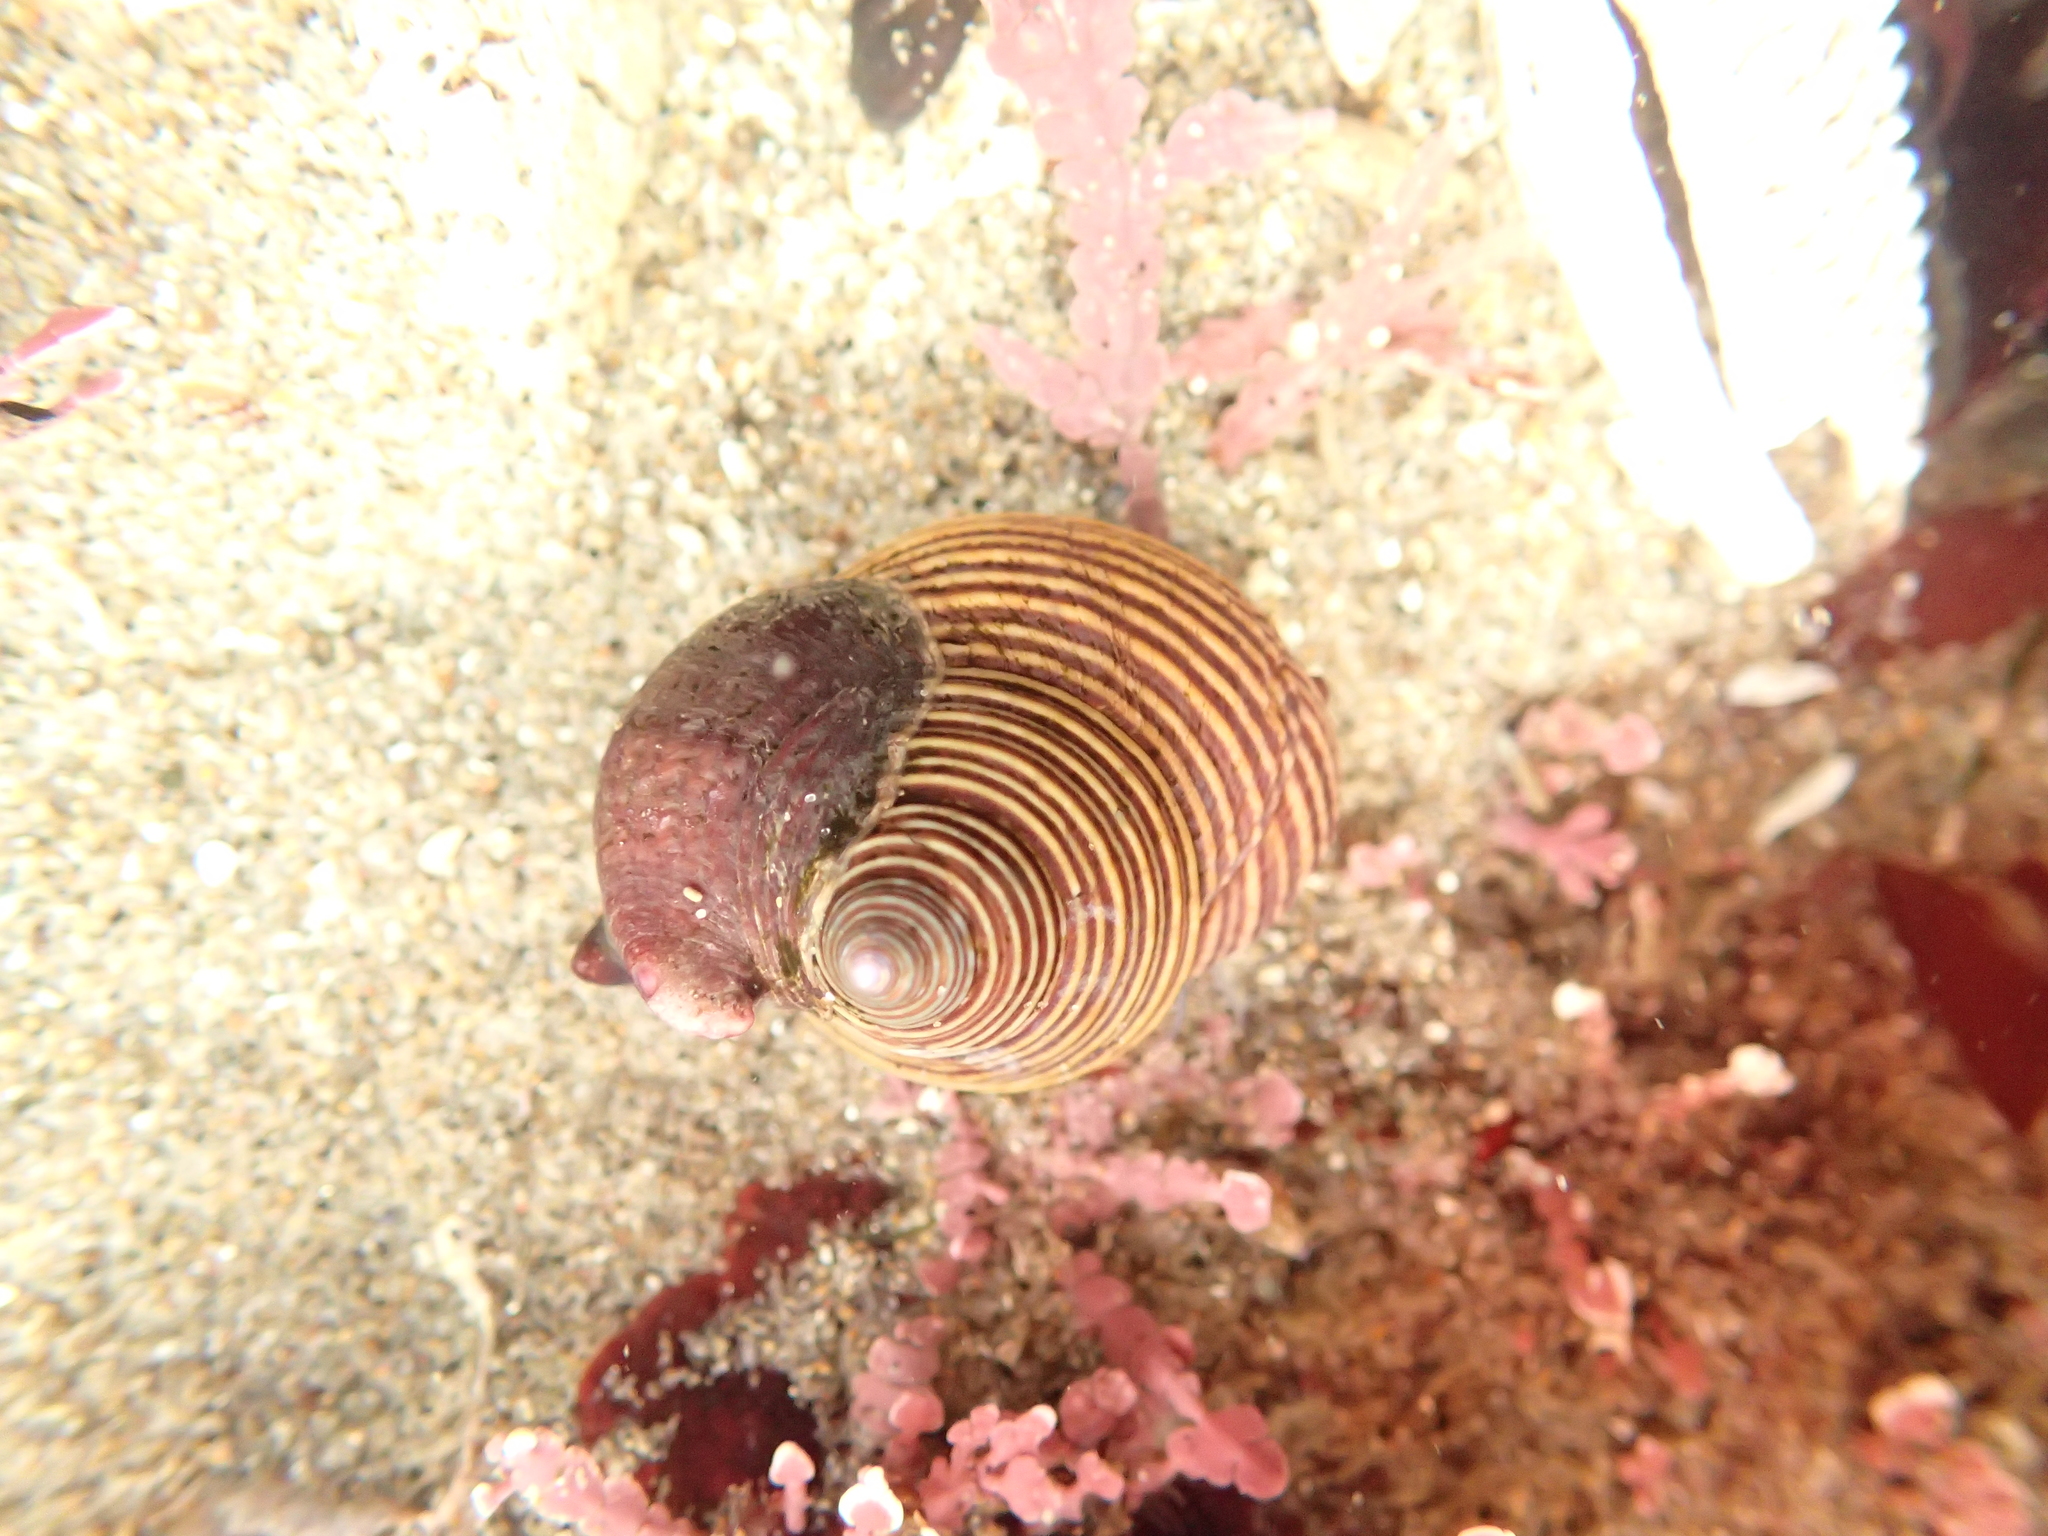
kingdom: Animalia
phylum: Mollusca
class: Gastropoda
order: Trochida
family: Calliostomatidae
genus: Calliostoma
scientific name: Calliostoma ligatum
